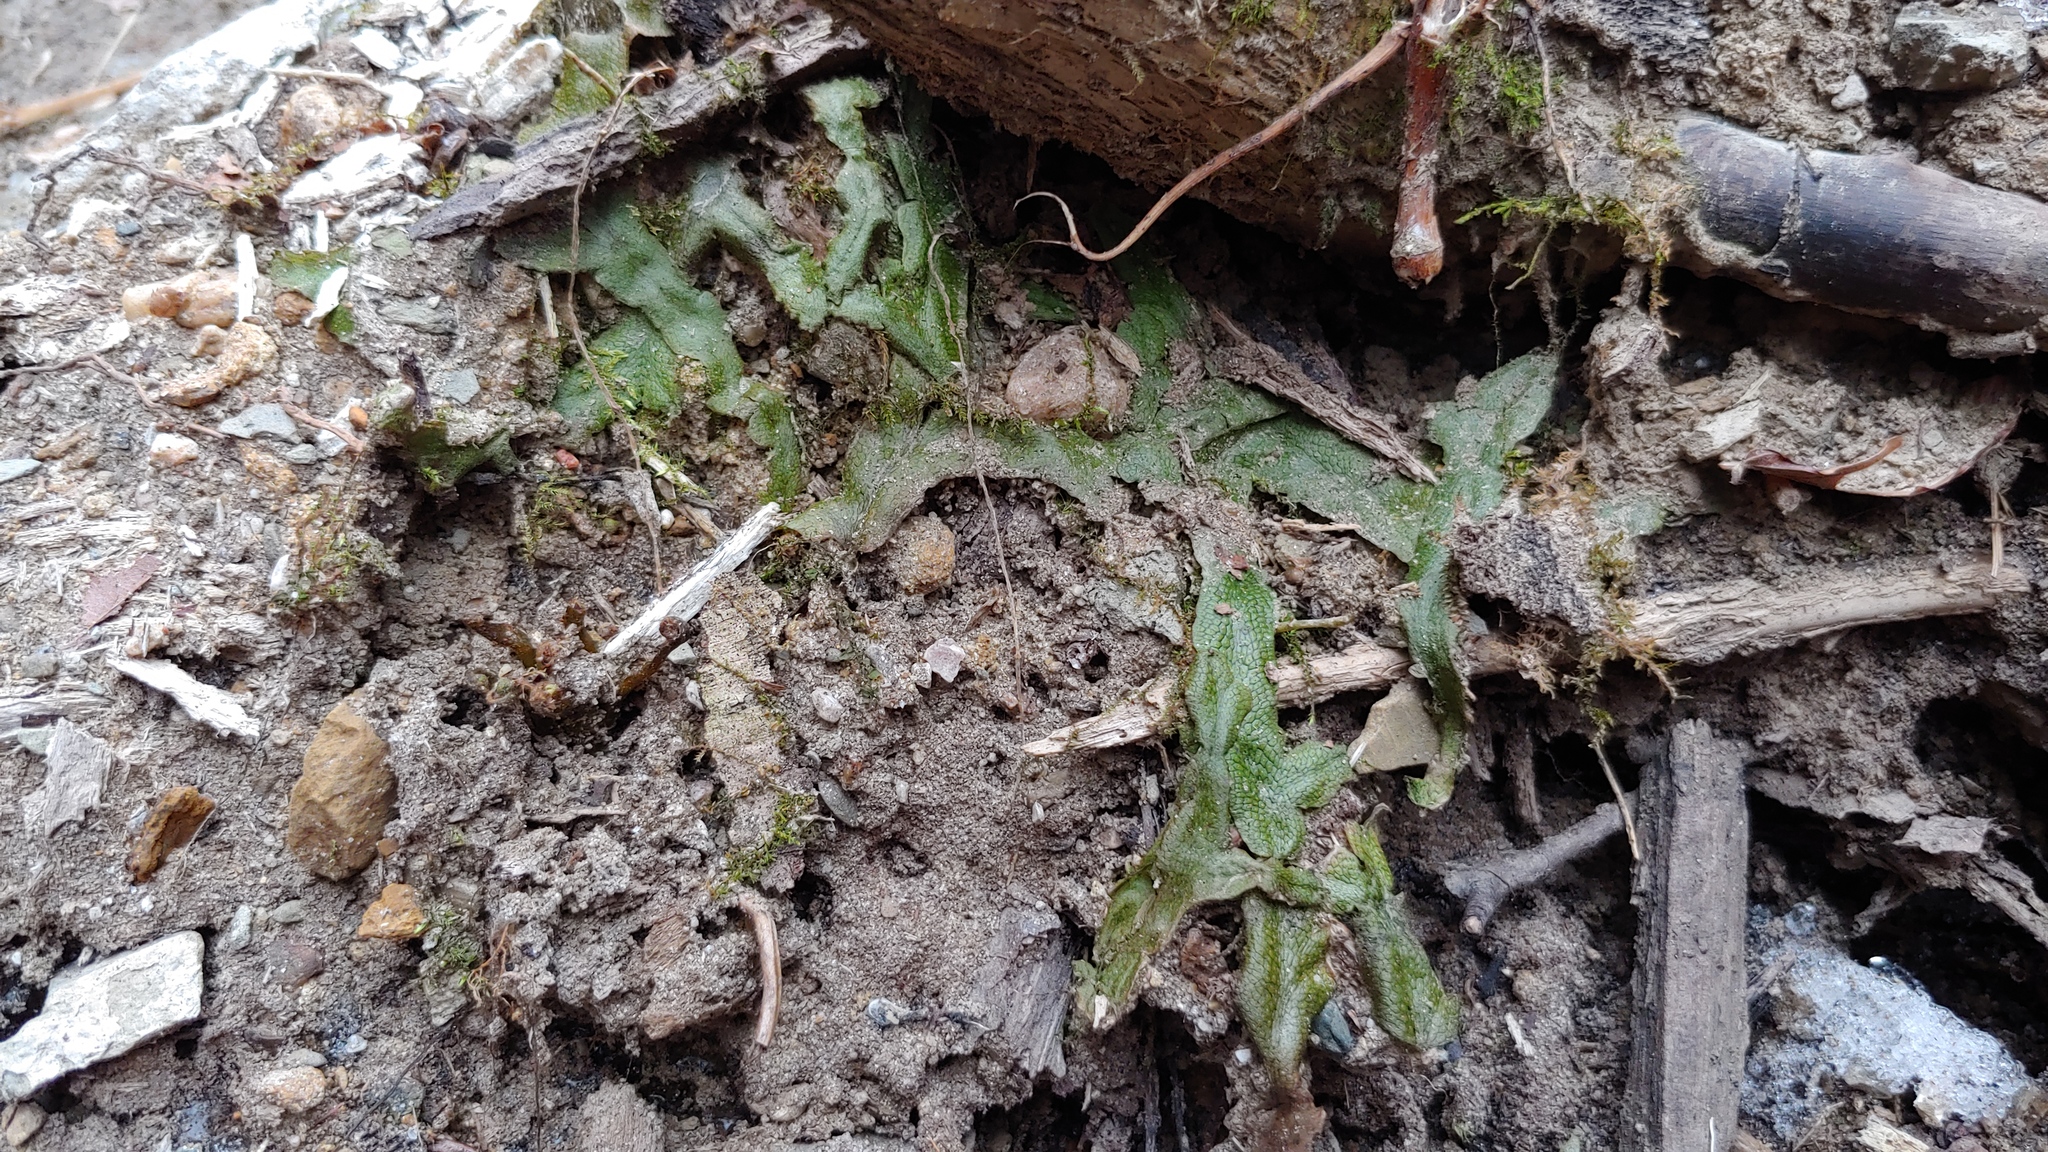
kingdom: Plantae
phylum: Marchantiophyta
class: Marchantiopsida
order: Marchantiales
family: Conocephalaceae
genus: Conocephalum
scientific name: Conocephalum salebrosum
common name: Cat-tongue liverwort
